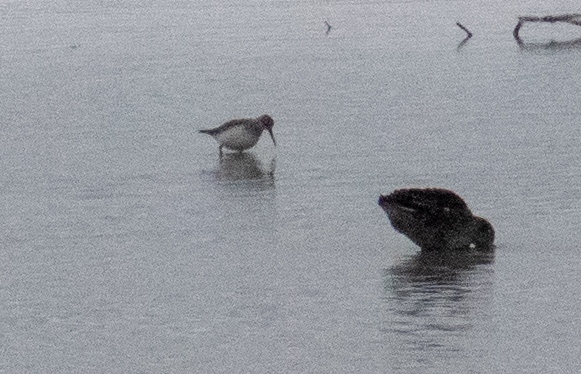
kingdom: Animalia
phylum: Chordata
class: Aves
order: Charadriiformes
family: Scolopacidae
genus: Tringa
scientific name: Tringa ochropus
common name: Green sandpiper
